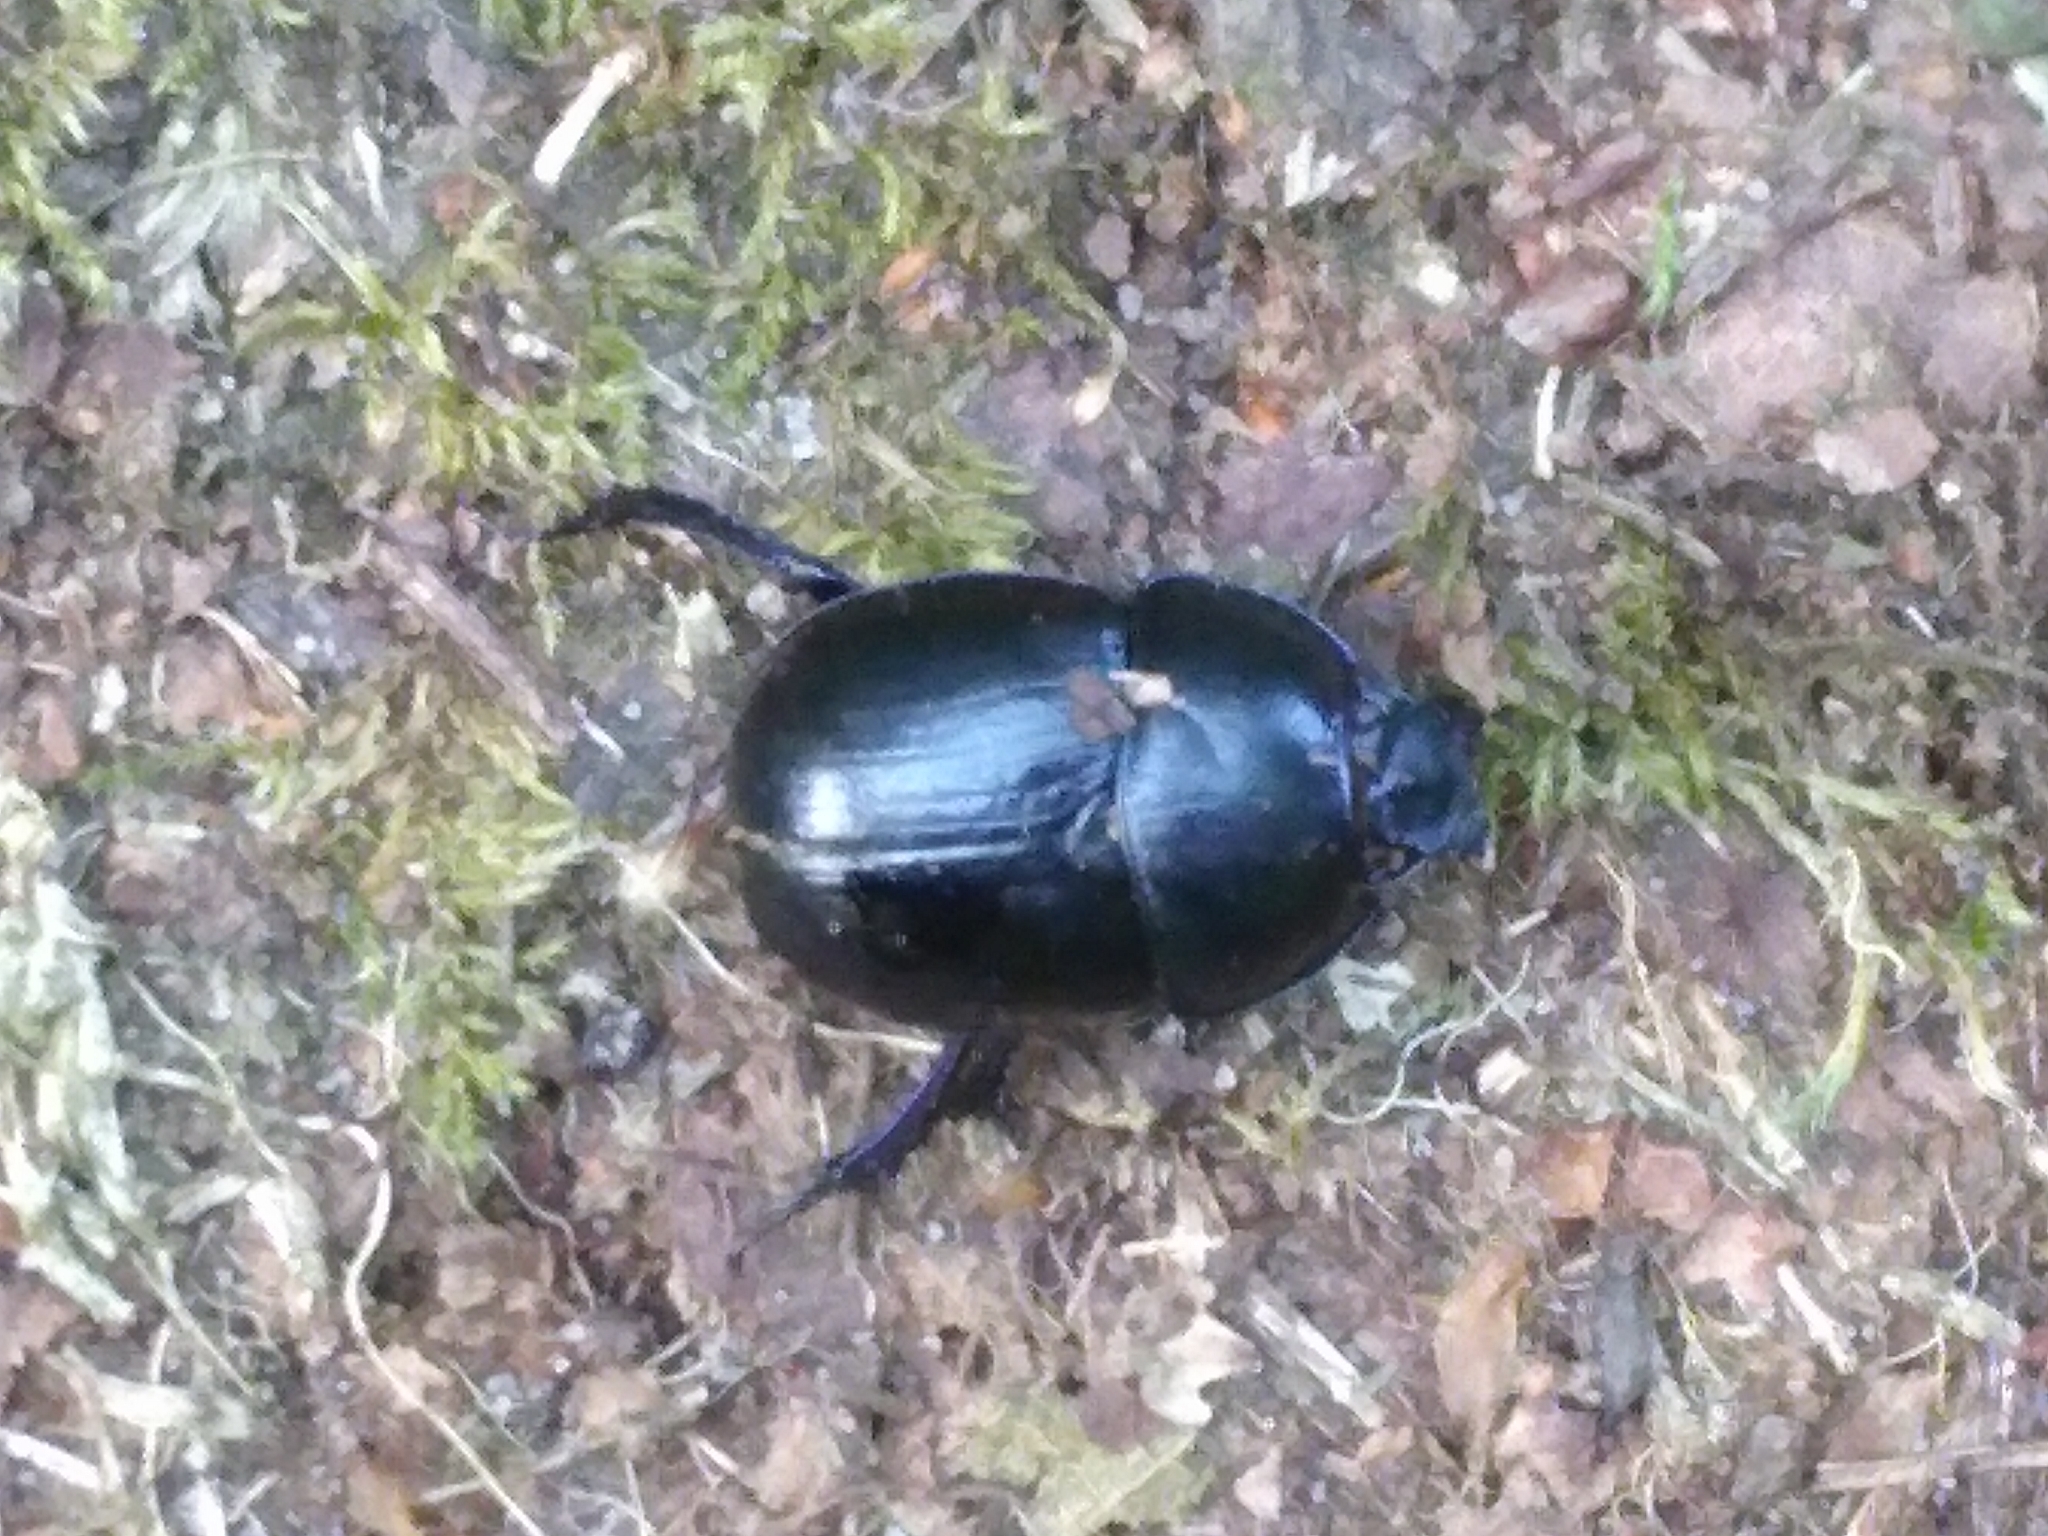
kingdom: Animalia
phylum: Arthropoda
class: Insecta
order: Coleoptera
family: Geotrupidae
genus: Anoplotrupes
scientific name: Anoplotrupes stercorosus
